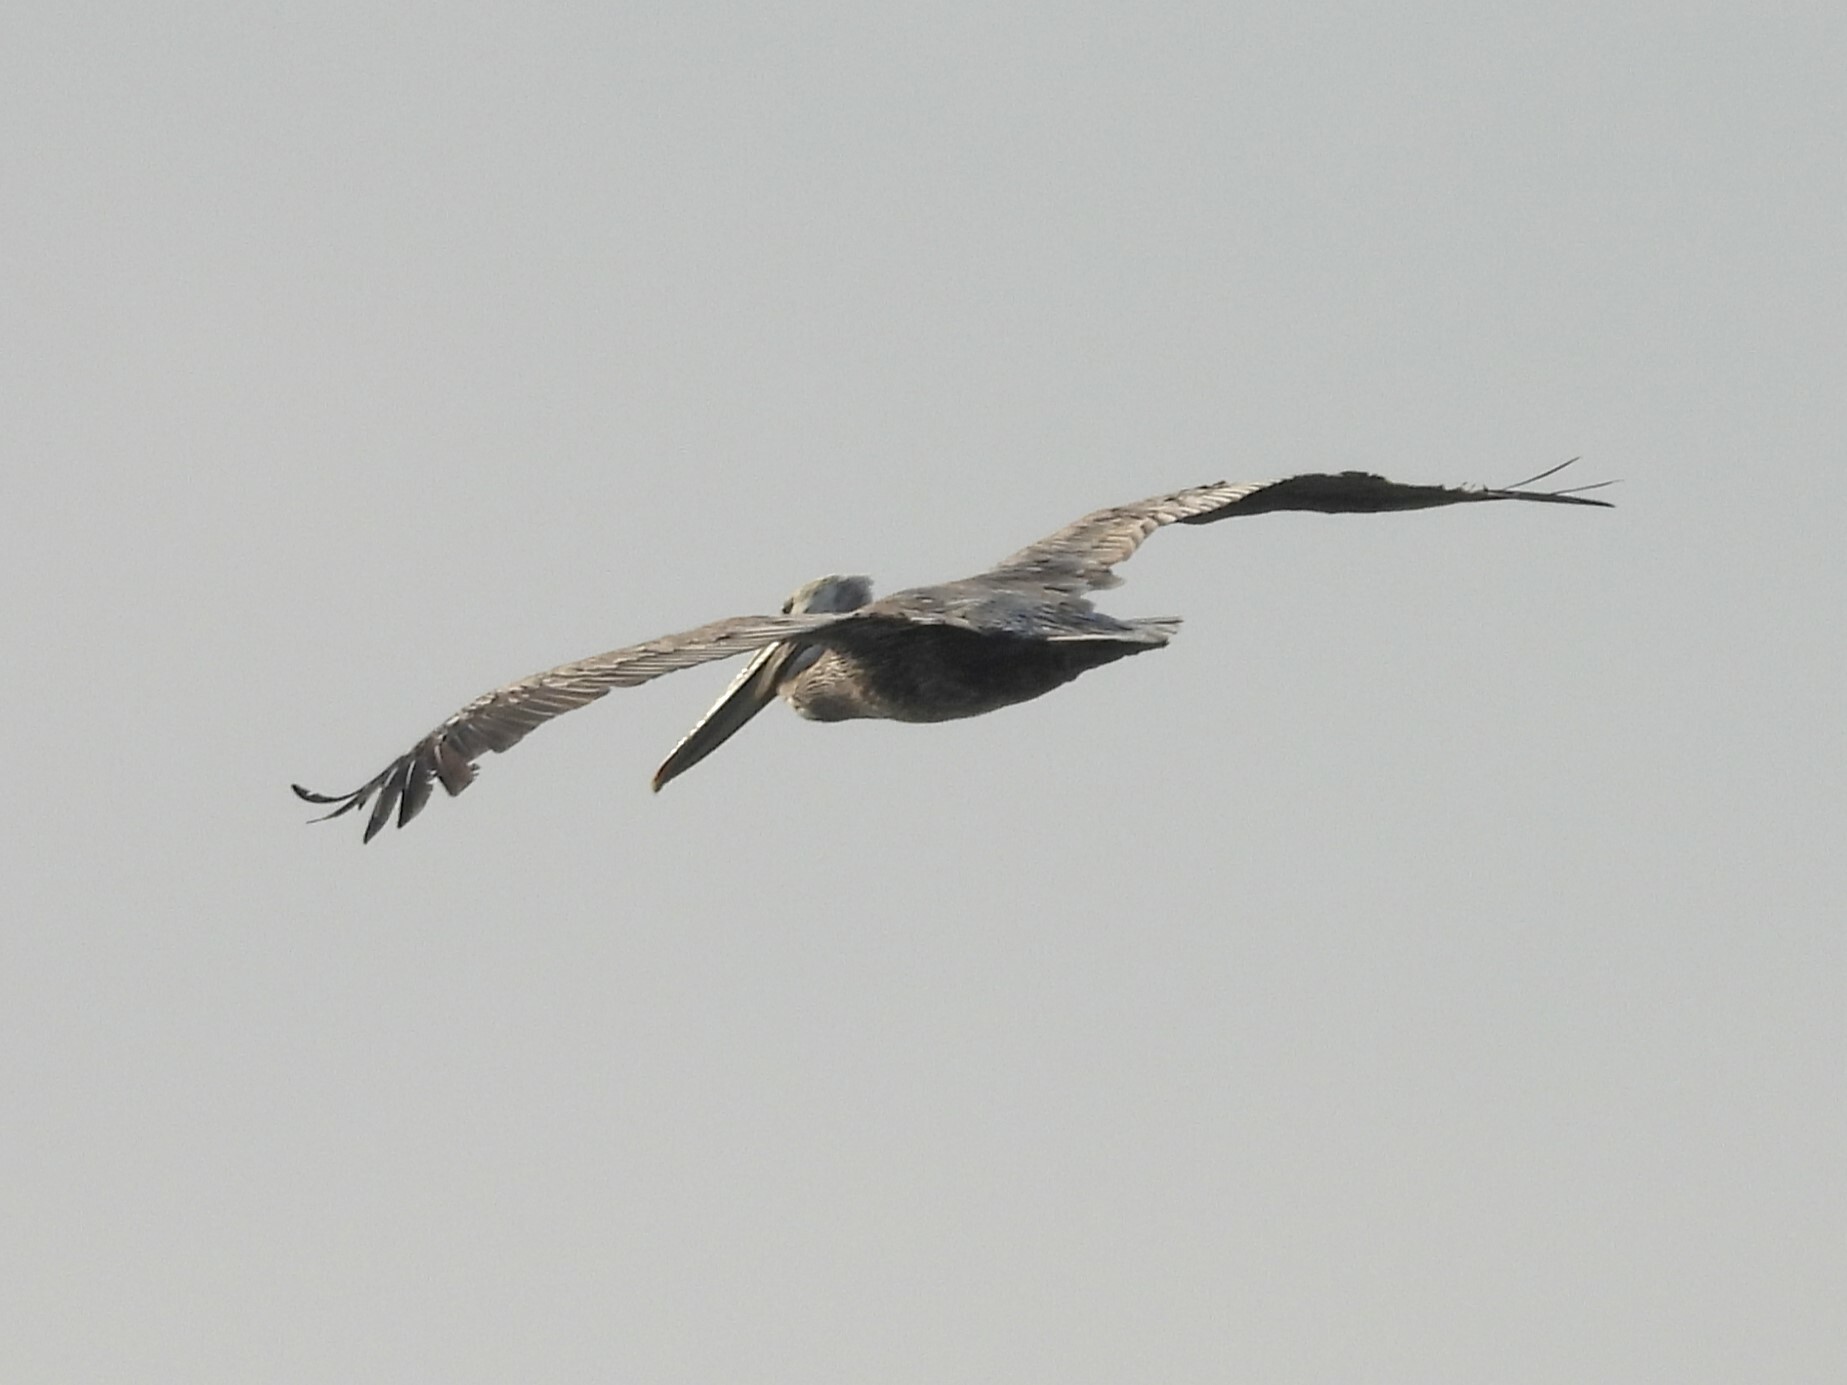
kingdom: Animalia
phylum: Chordata
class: Aves
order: Pelecaniformes
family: Pelecanidae
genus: Pelecanus
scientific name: Pelecanus occidentalis
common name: Brown pelican
